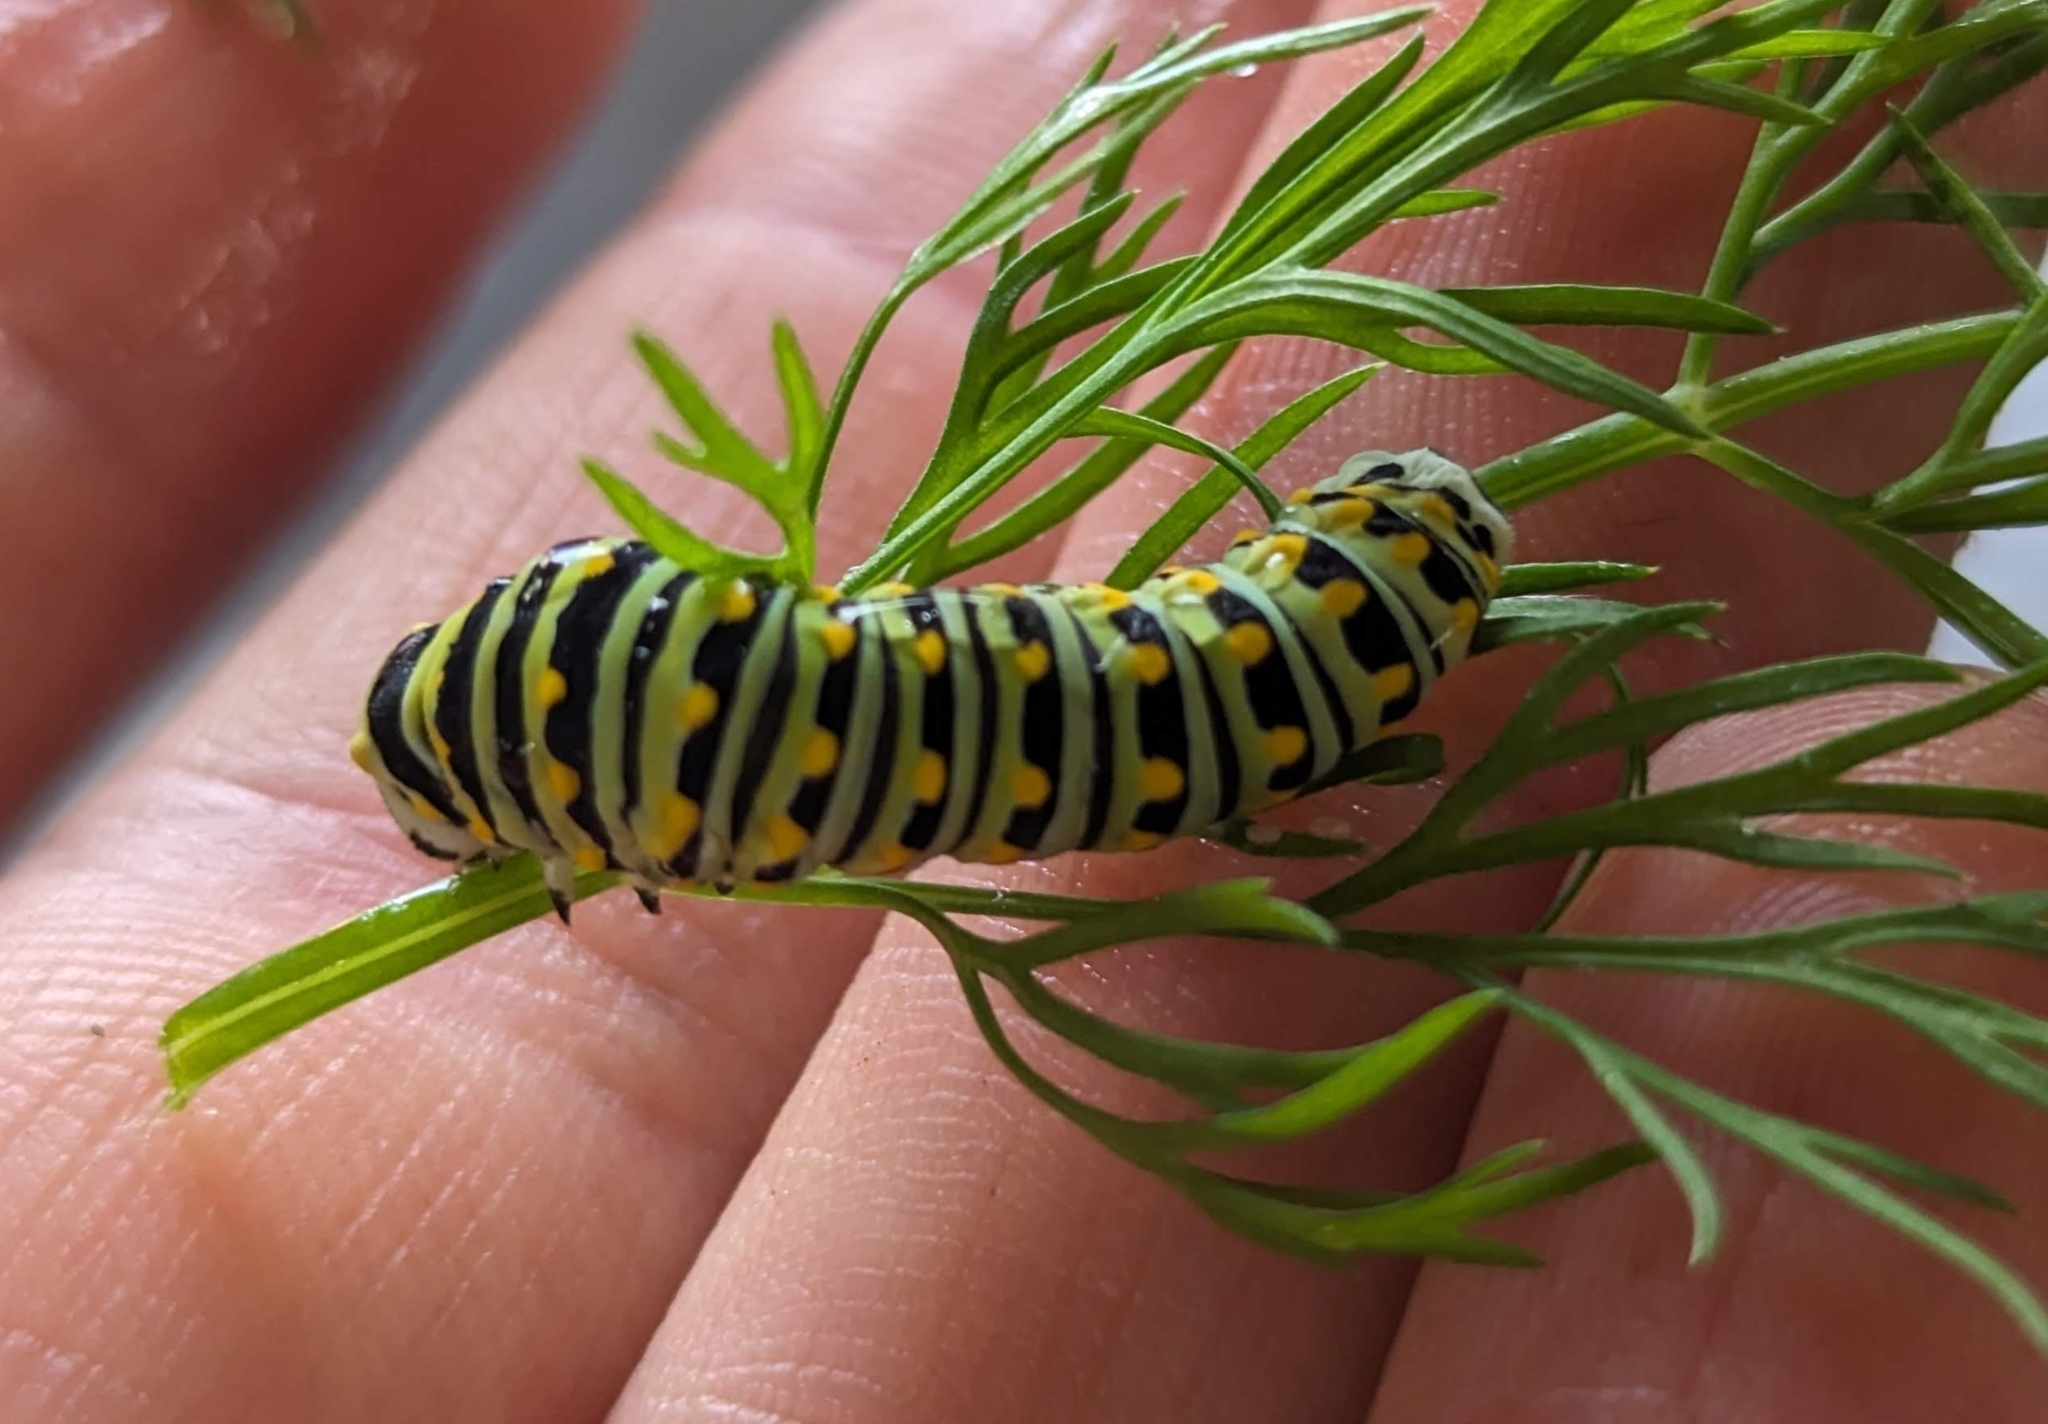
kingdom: Animalia
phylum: Arthropoda
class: Insecta
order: Lepidoptera
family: Papilionidae
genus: Papilio
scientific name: Papilio polyxenes
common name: Black swallowtail
